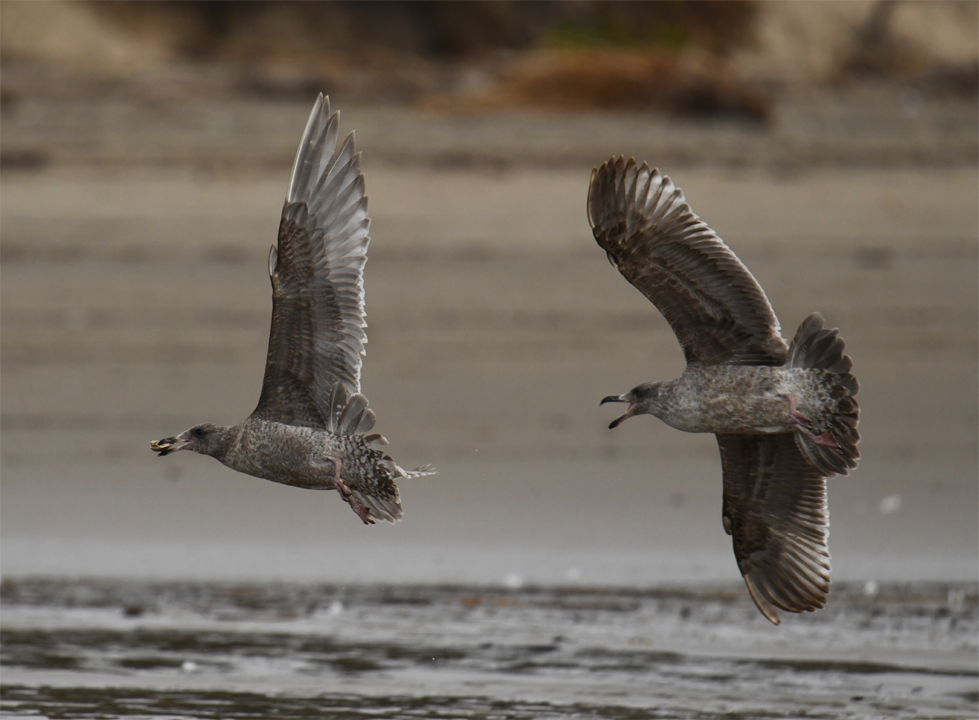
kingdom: Animalia
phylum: Chordata
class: Aves
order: Charadriiformes
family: Laridae
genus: Larus
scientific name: Larus occidentalis
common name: Western gull
